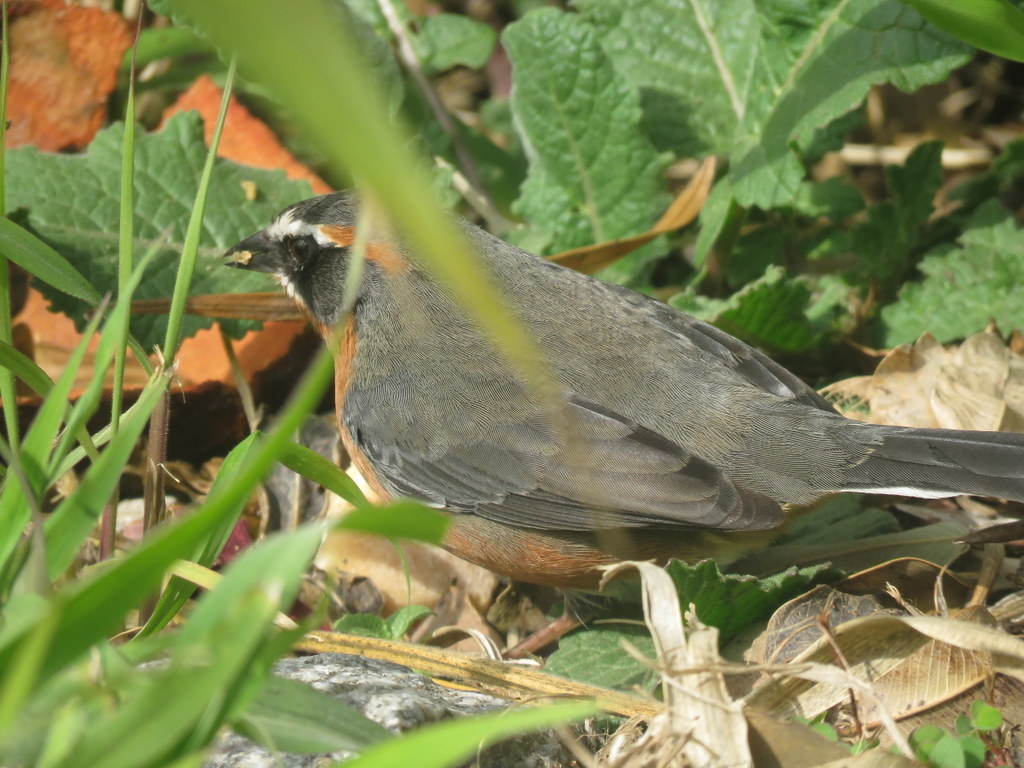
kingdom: Animalia
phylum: Chordata
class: Aves
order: Passeriformes
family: Thraupidae
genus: Poospiza
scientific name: Poospiza nigrorufa
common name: Black-and-rufous warbling finch
